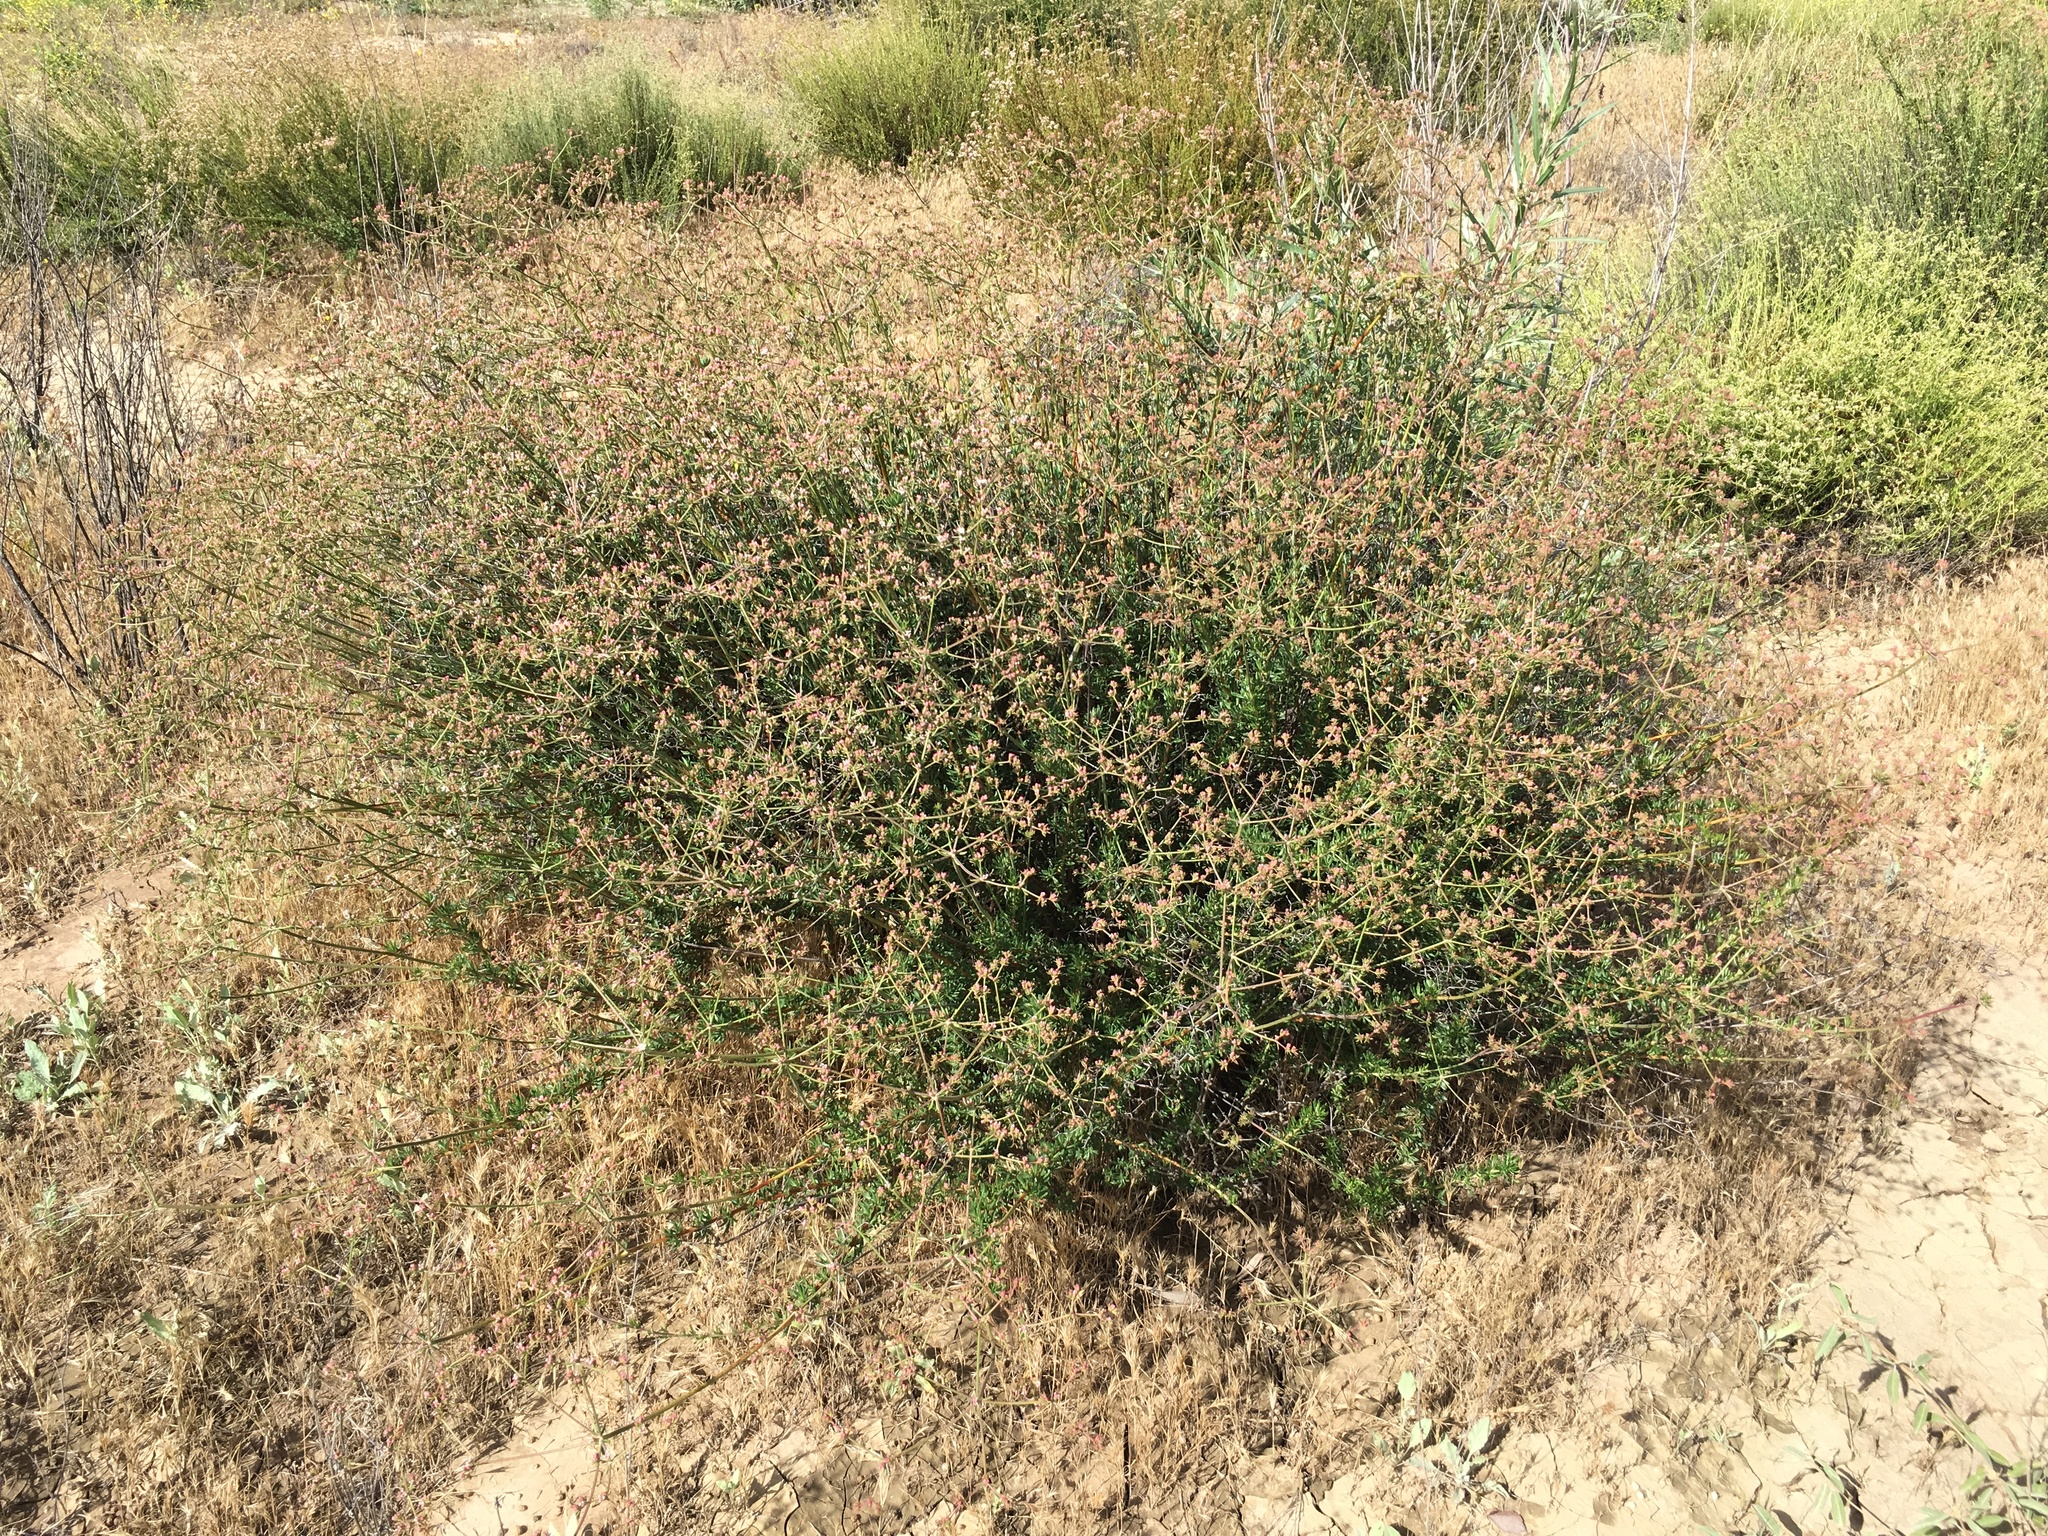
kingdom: Plantae
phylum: Tracheophyta
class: Magnoliopsida
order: Caryophyllales
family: Polygonaceae
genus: Eriogonum
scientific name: Eriogonum fasciculatum
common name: California wild buckwheat
